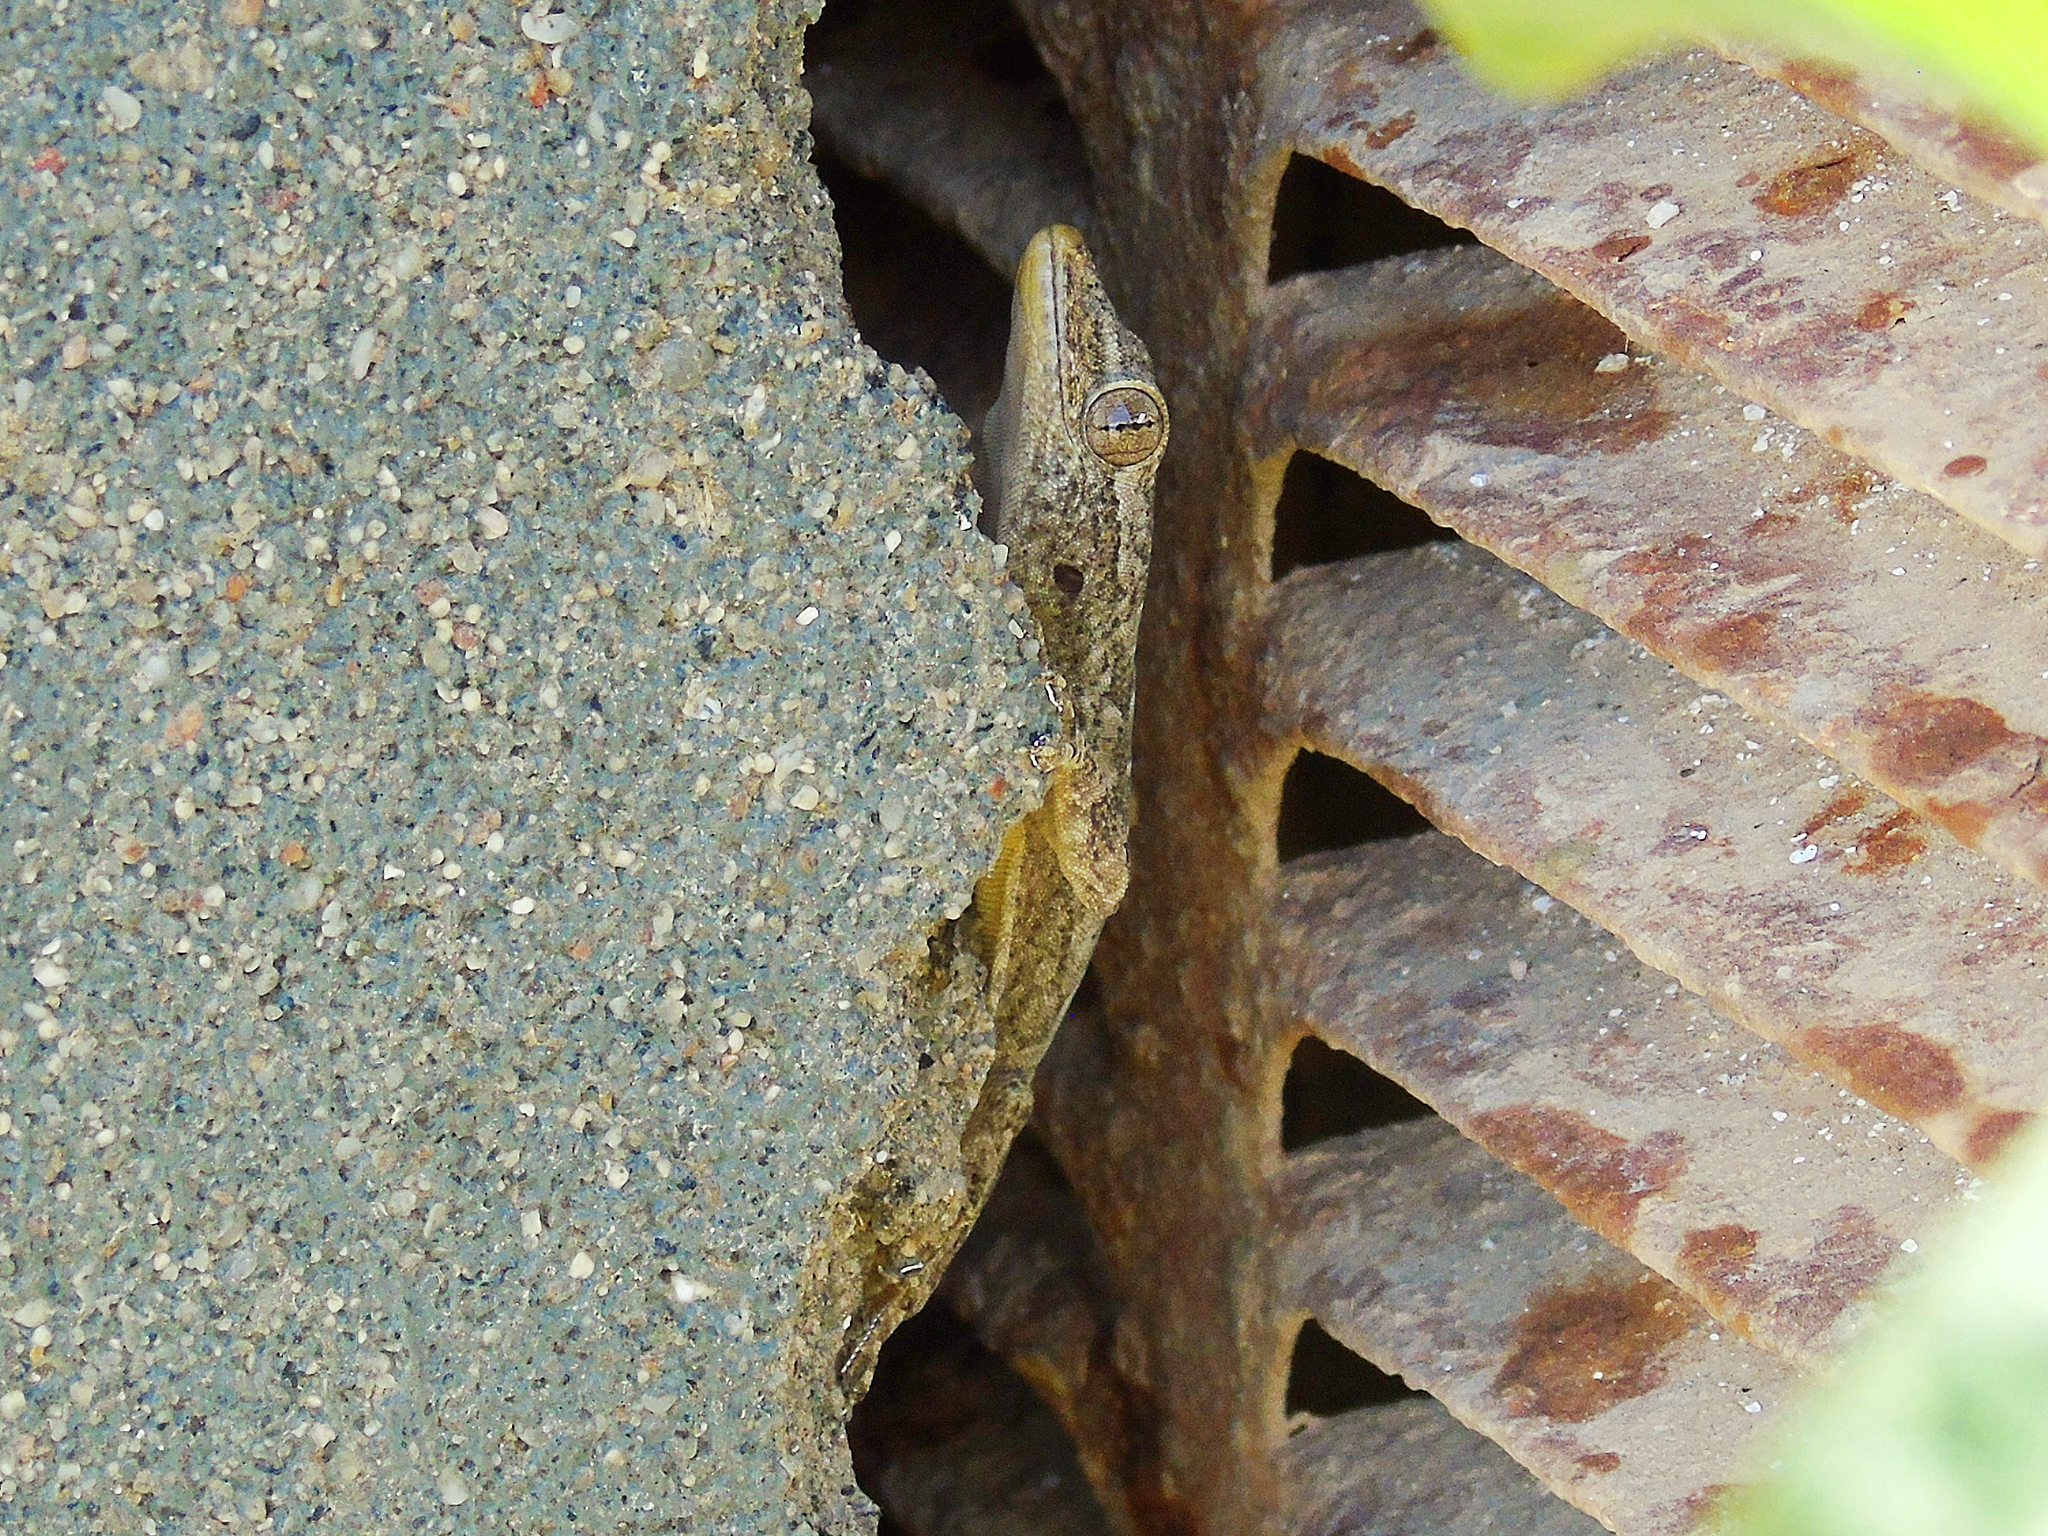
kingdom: Animalia
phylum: Chordata
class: Squamata
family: Gekkonidae
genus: Hemidactylus
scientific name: Hemidactylus flaviviridis
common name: Northern house gecko
